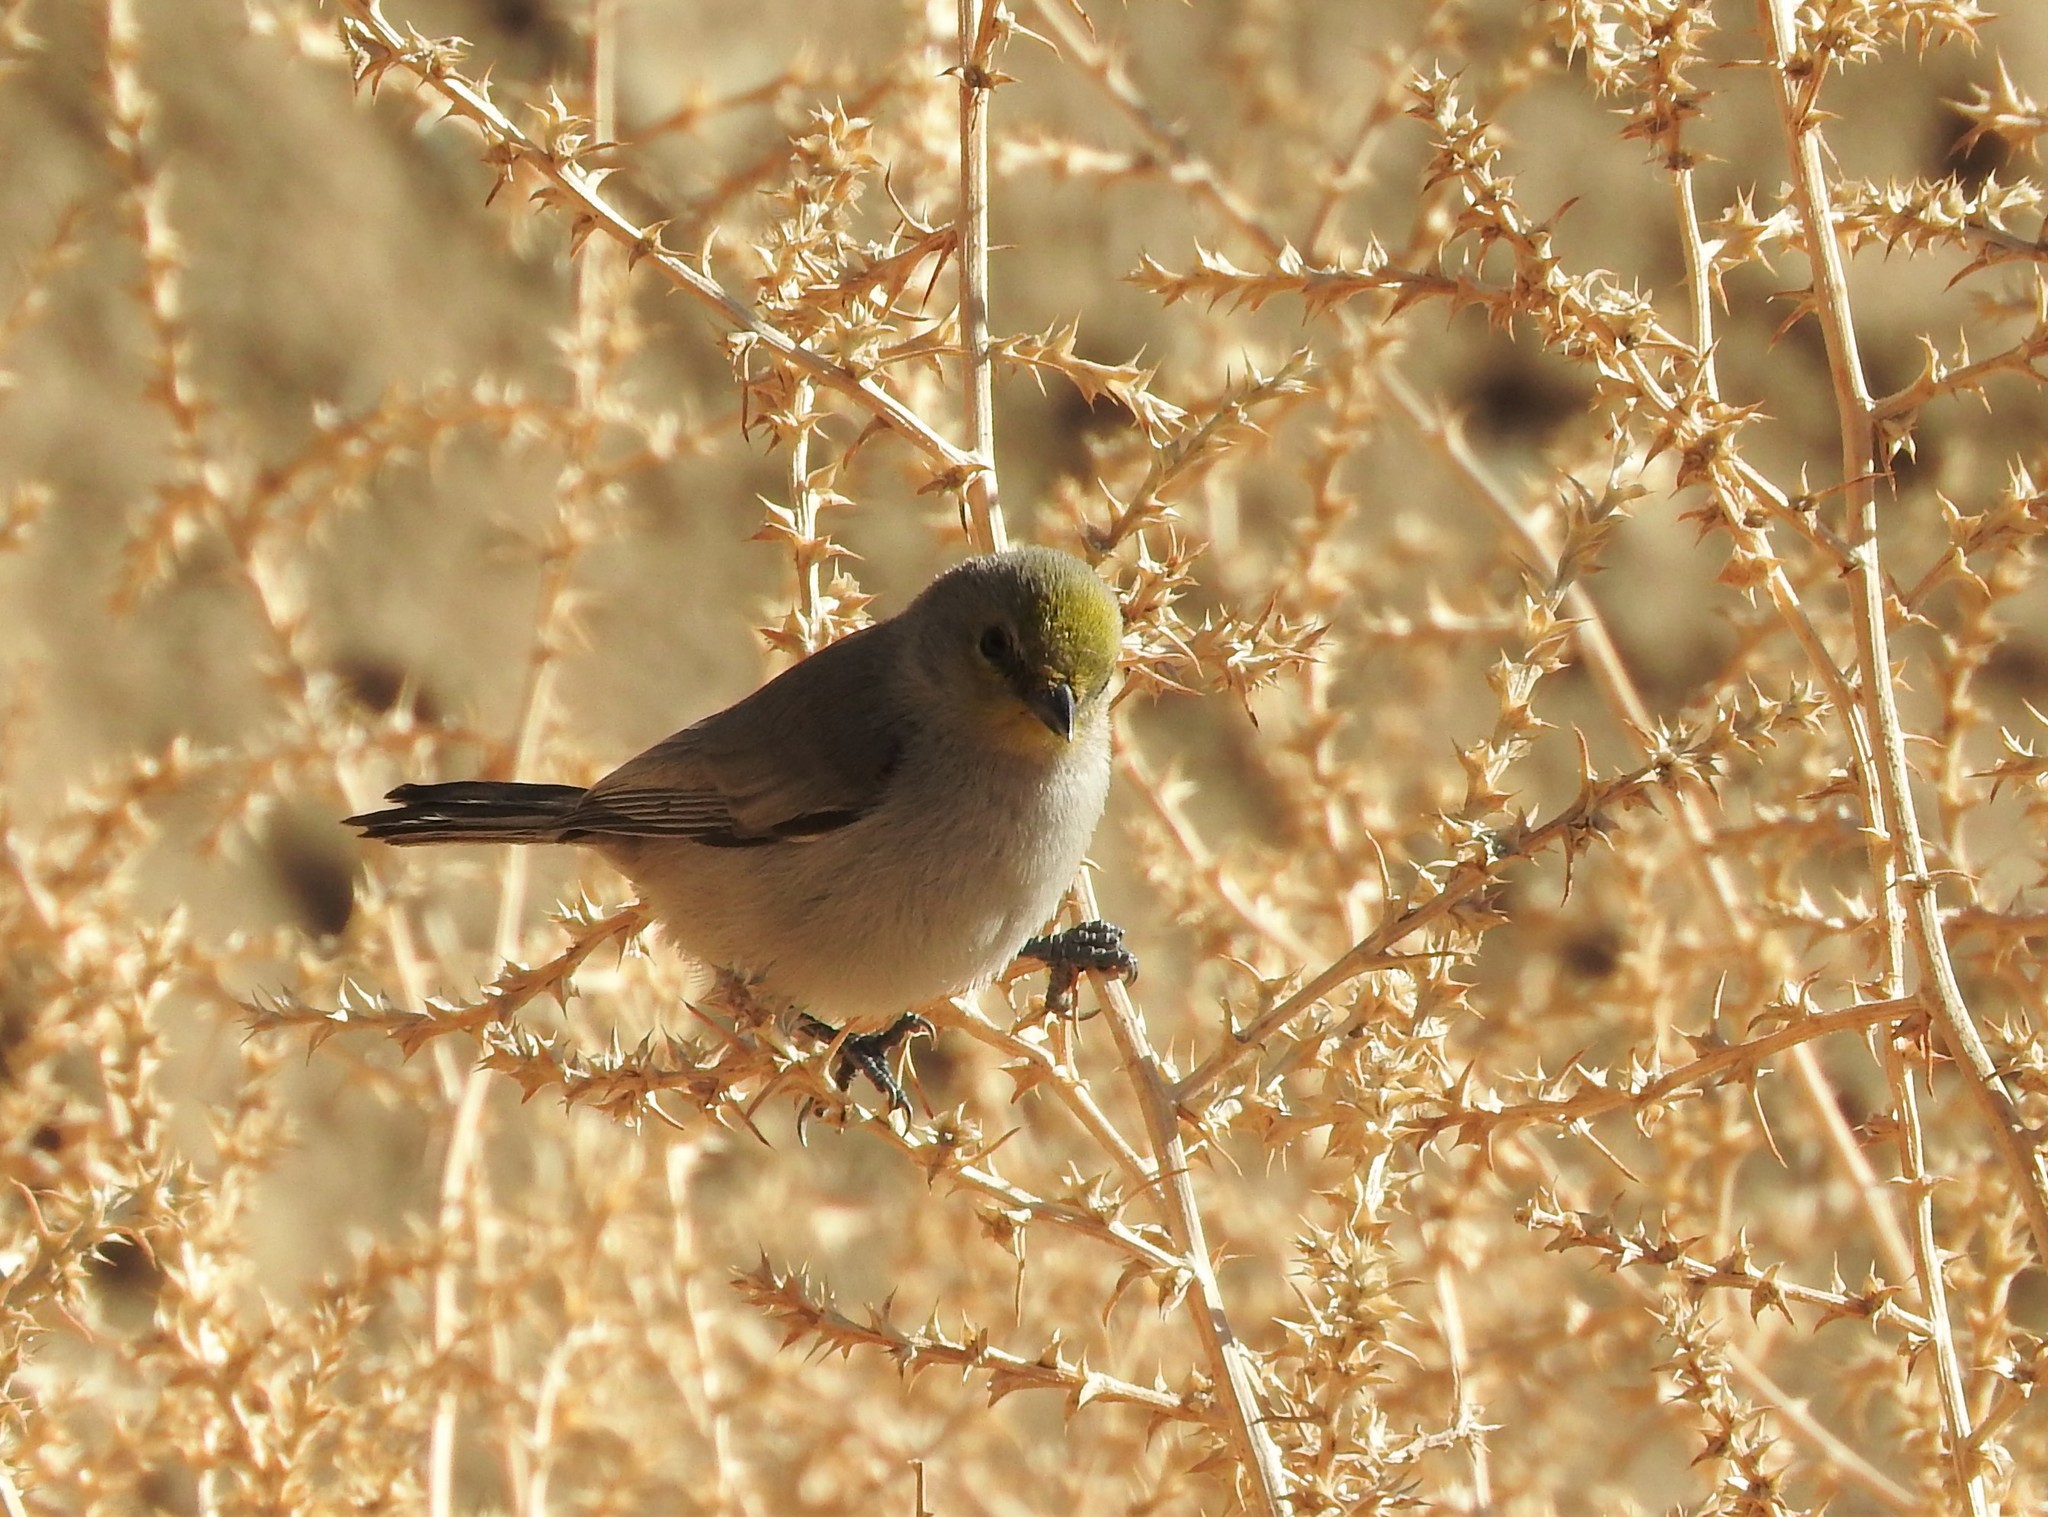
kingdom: Animalia
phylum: Chordata
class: Aves
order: Passeriformes
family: Remizidae
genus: Auriparus
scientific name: Auriparus flaviceps
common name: Verdin
